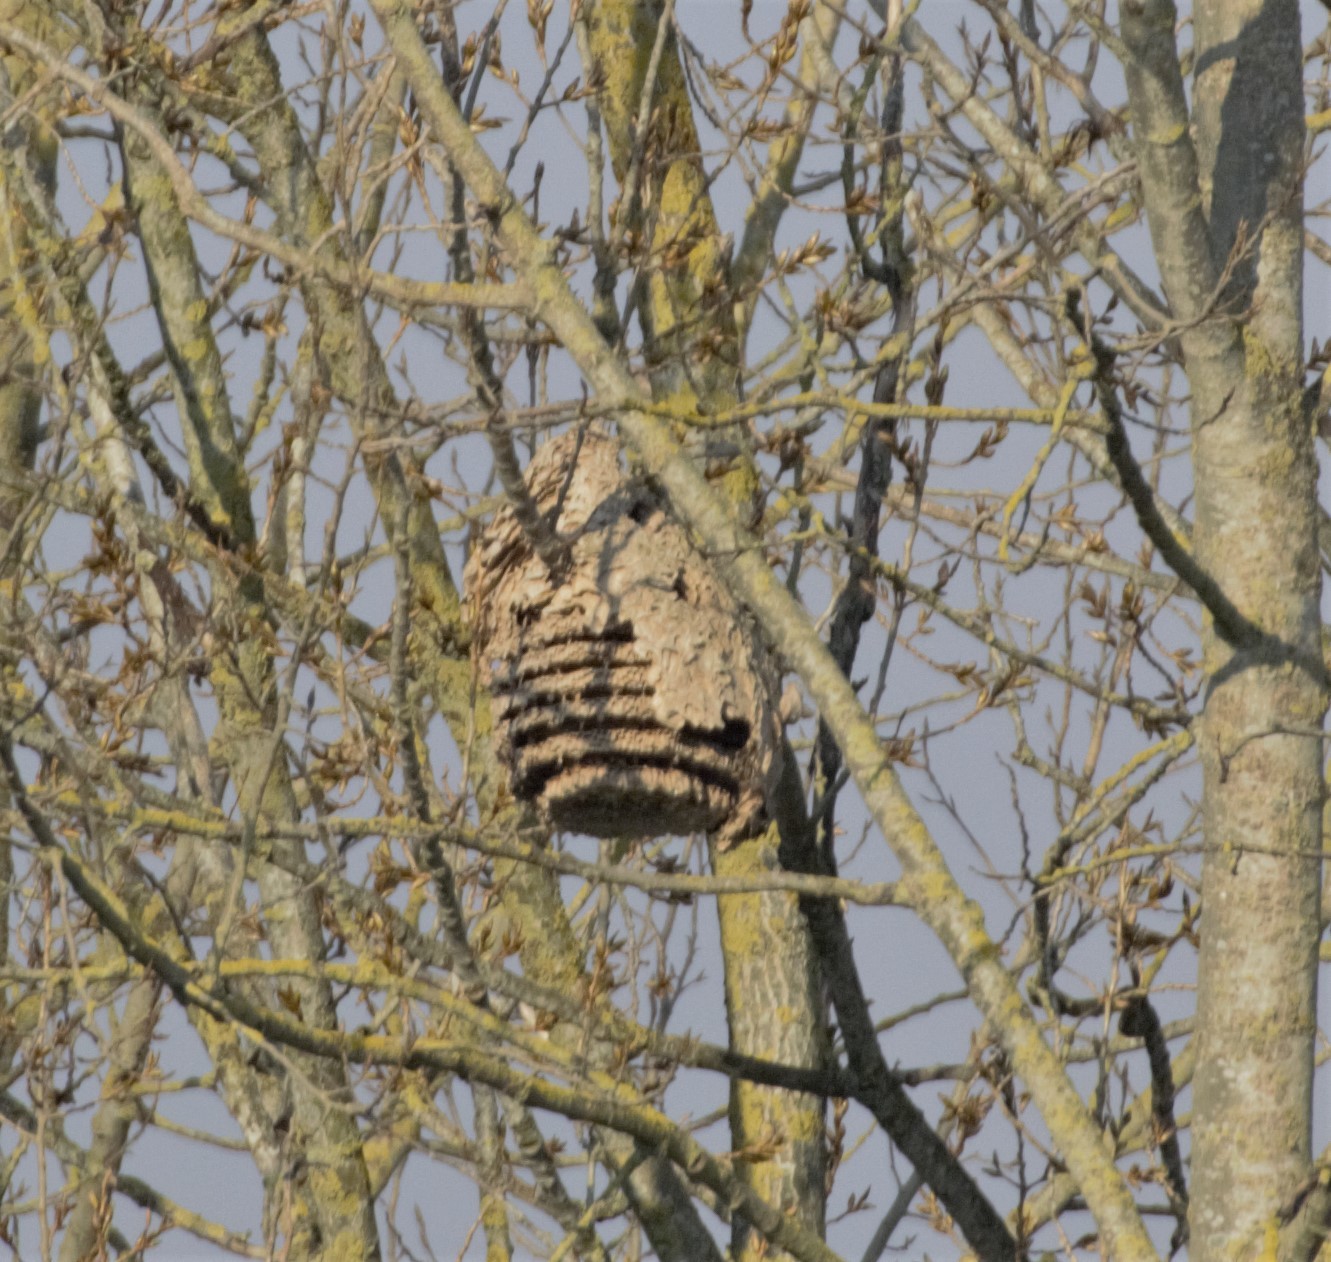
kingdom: Animalia
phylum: Arthropoda
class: Insecta
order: Hymenoptera
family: Vespidae
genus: Vespa
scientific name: Vespa velutina
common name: Asian hornet
